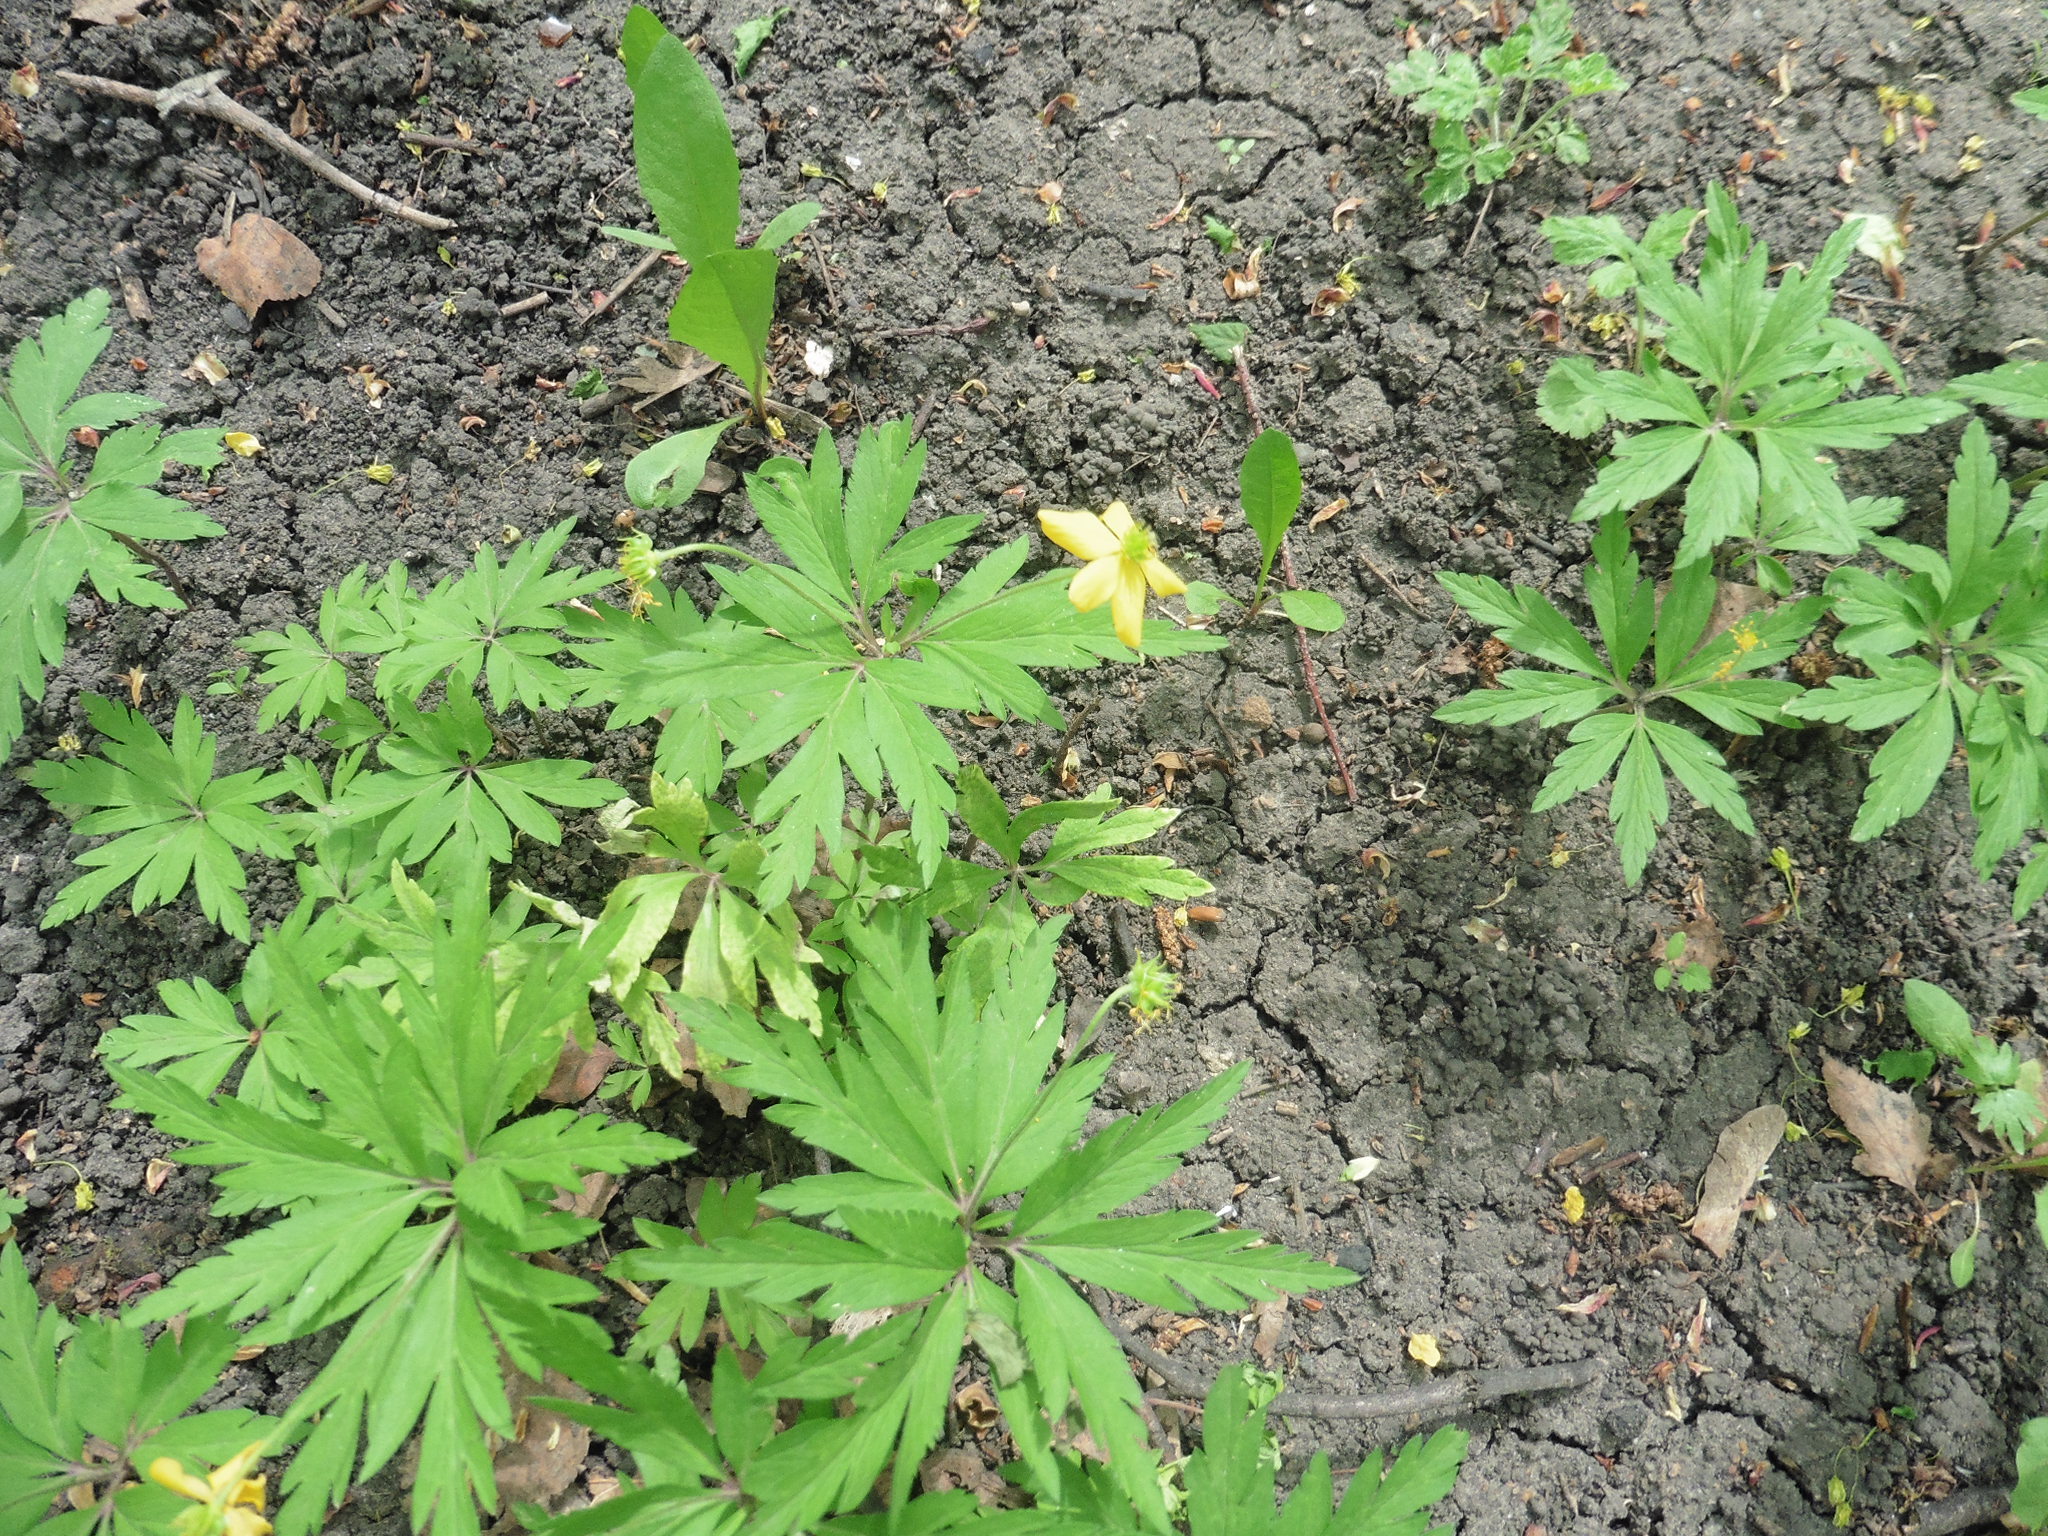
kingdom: Plantae
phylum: Tracheophyta
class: Magnoliopsida
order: Ranunculales
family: Ranunculaceae
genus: Anemone
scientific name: Anemone ranunculoides
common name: Yellow anemone
